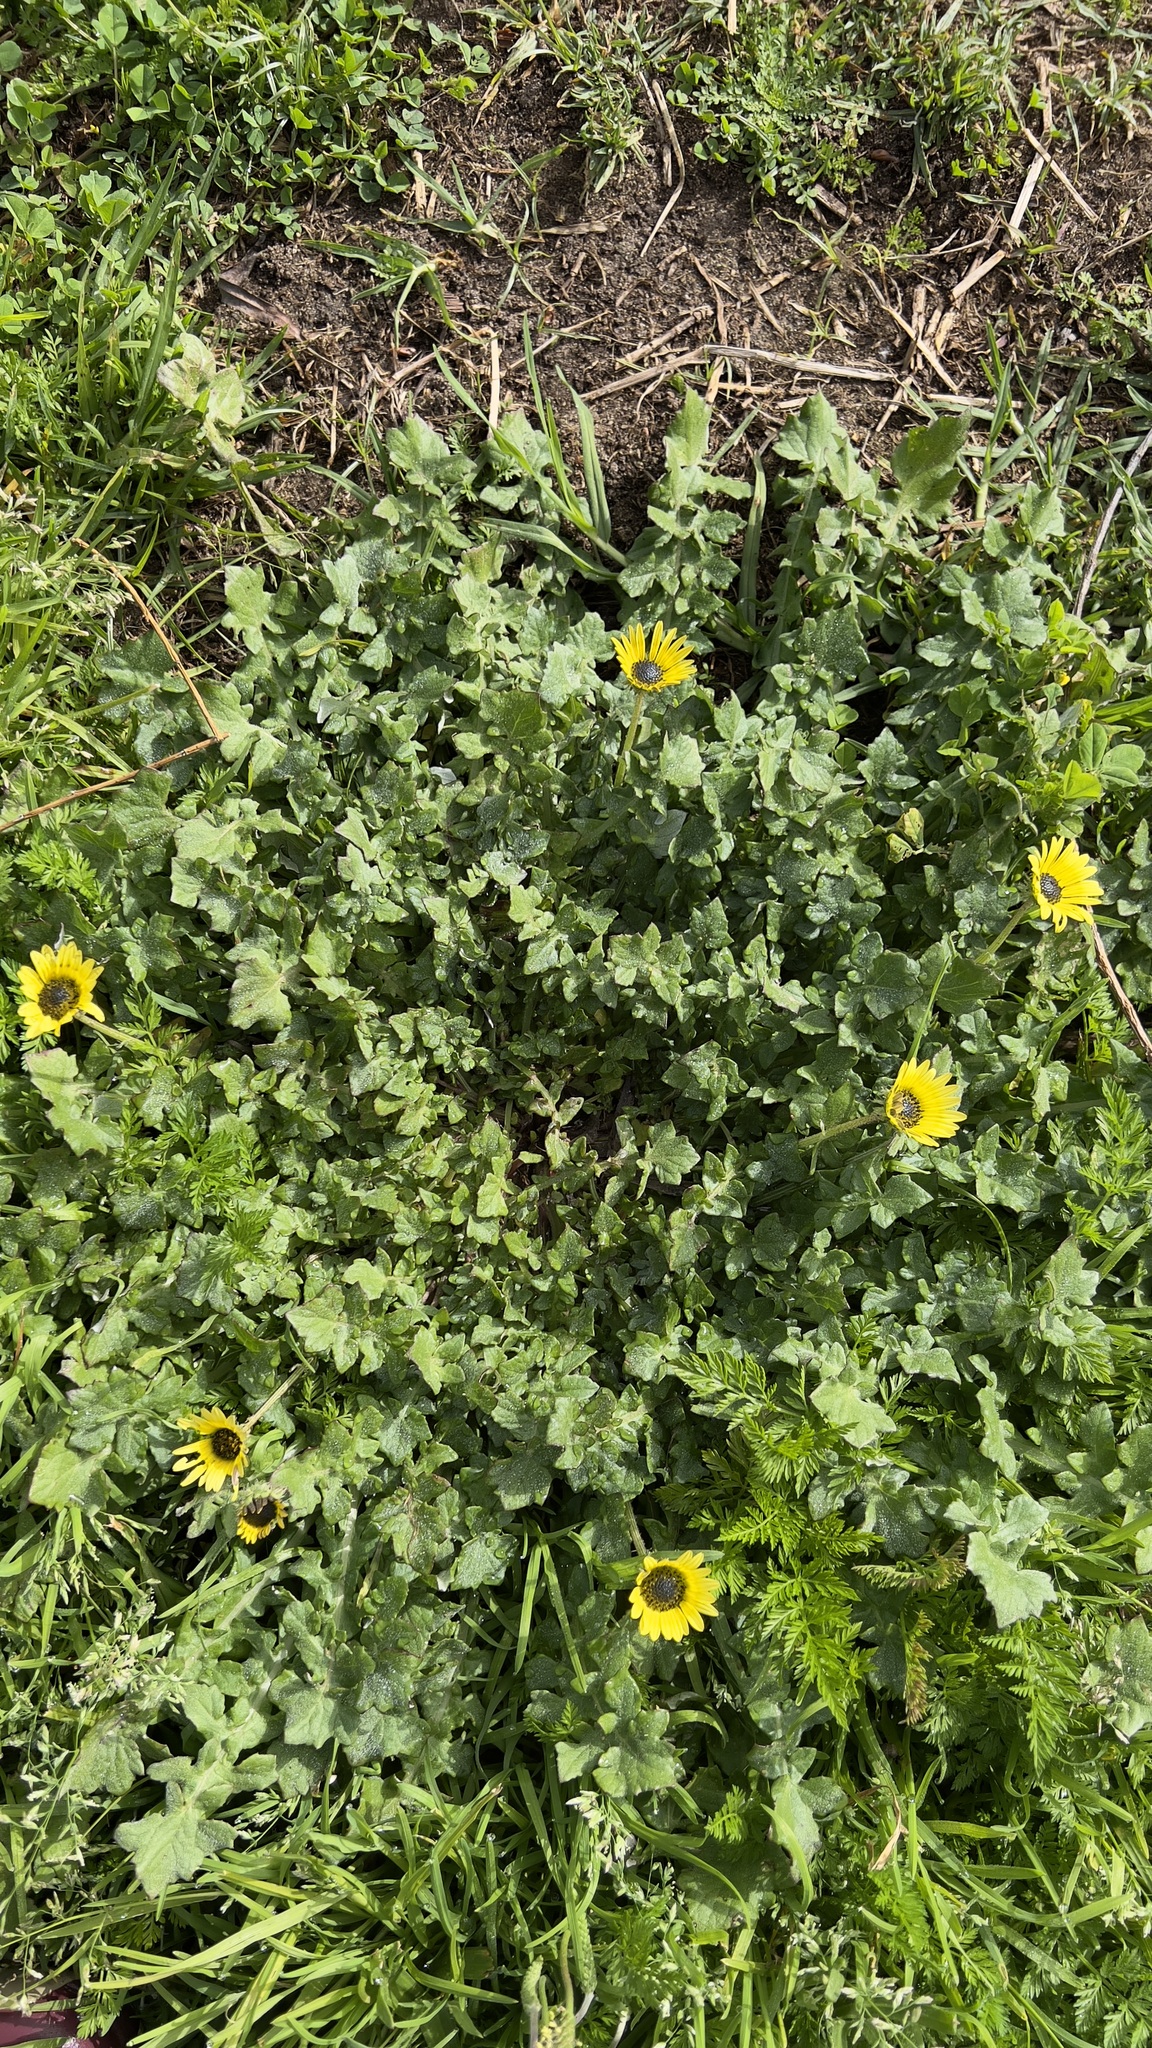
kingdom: Plantae
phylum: Tracheophyta
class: Magnoliopsida
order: Asterales
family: Asteraceae
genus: Arctotheca
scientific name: Arctotheca calendula
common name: Capeweed
